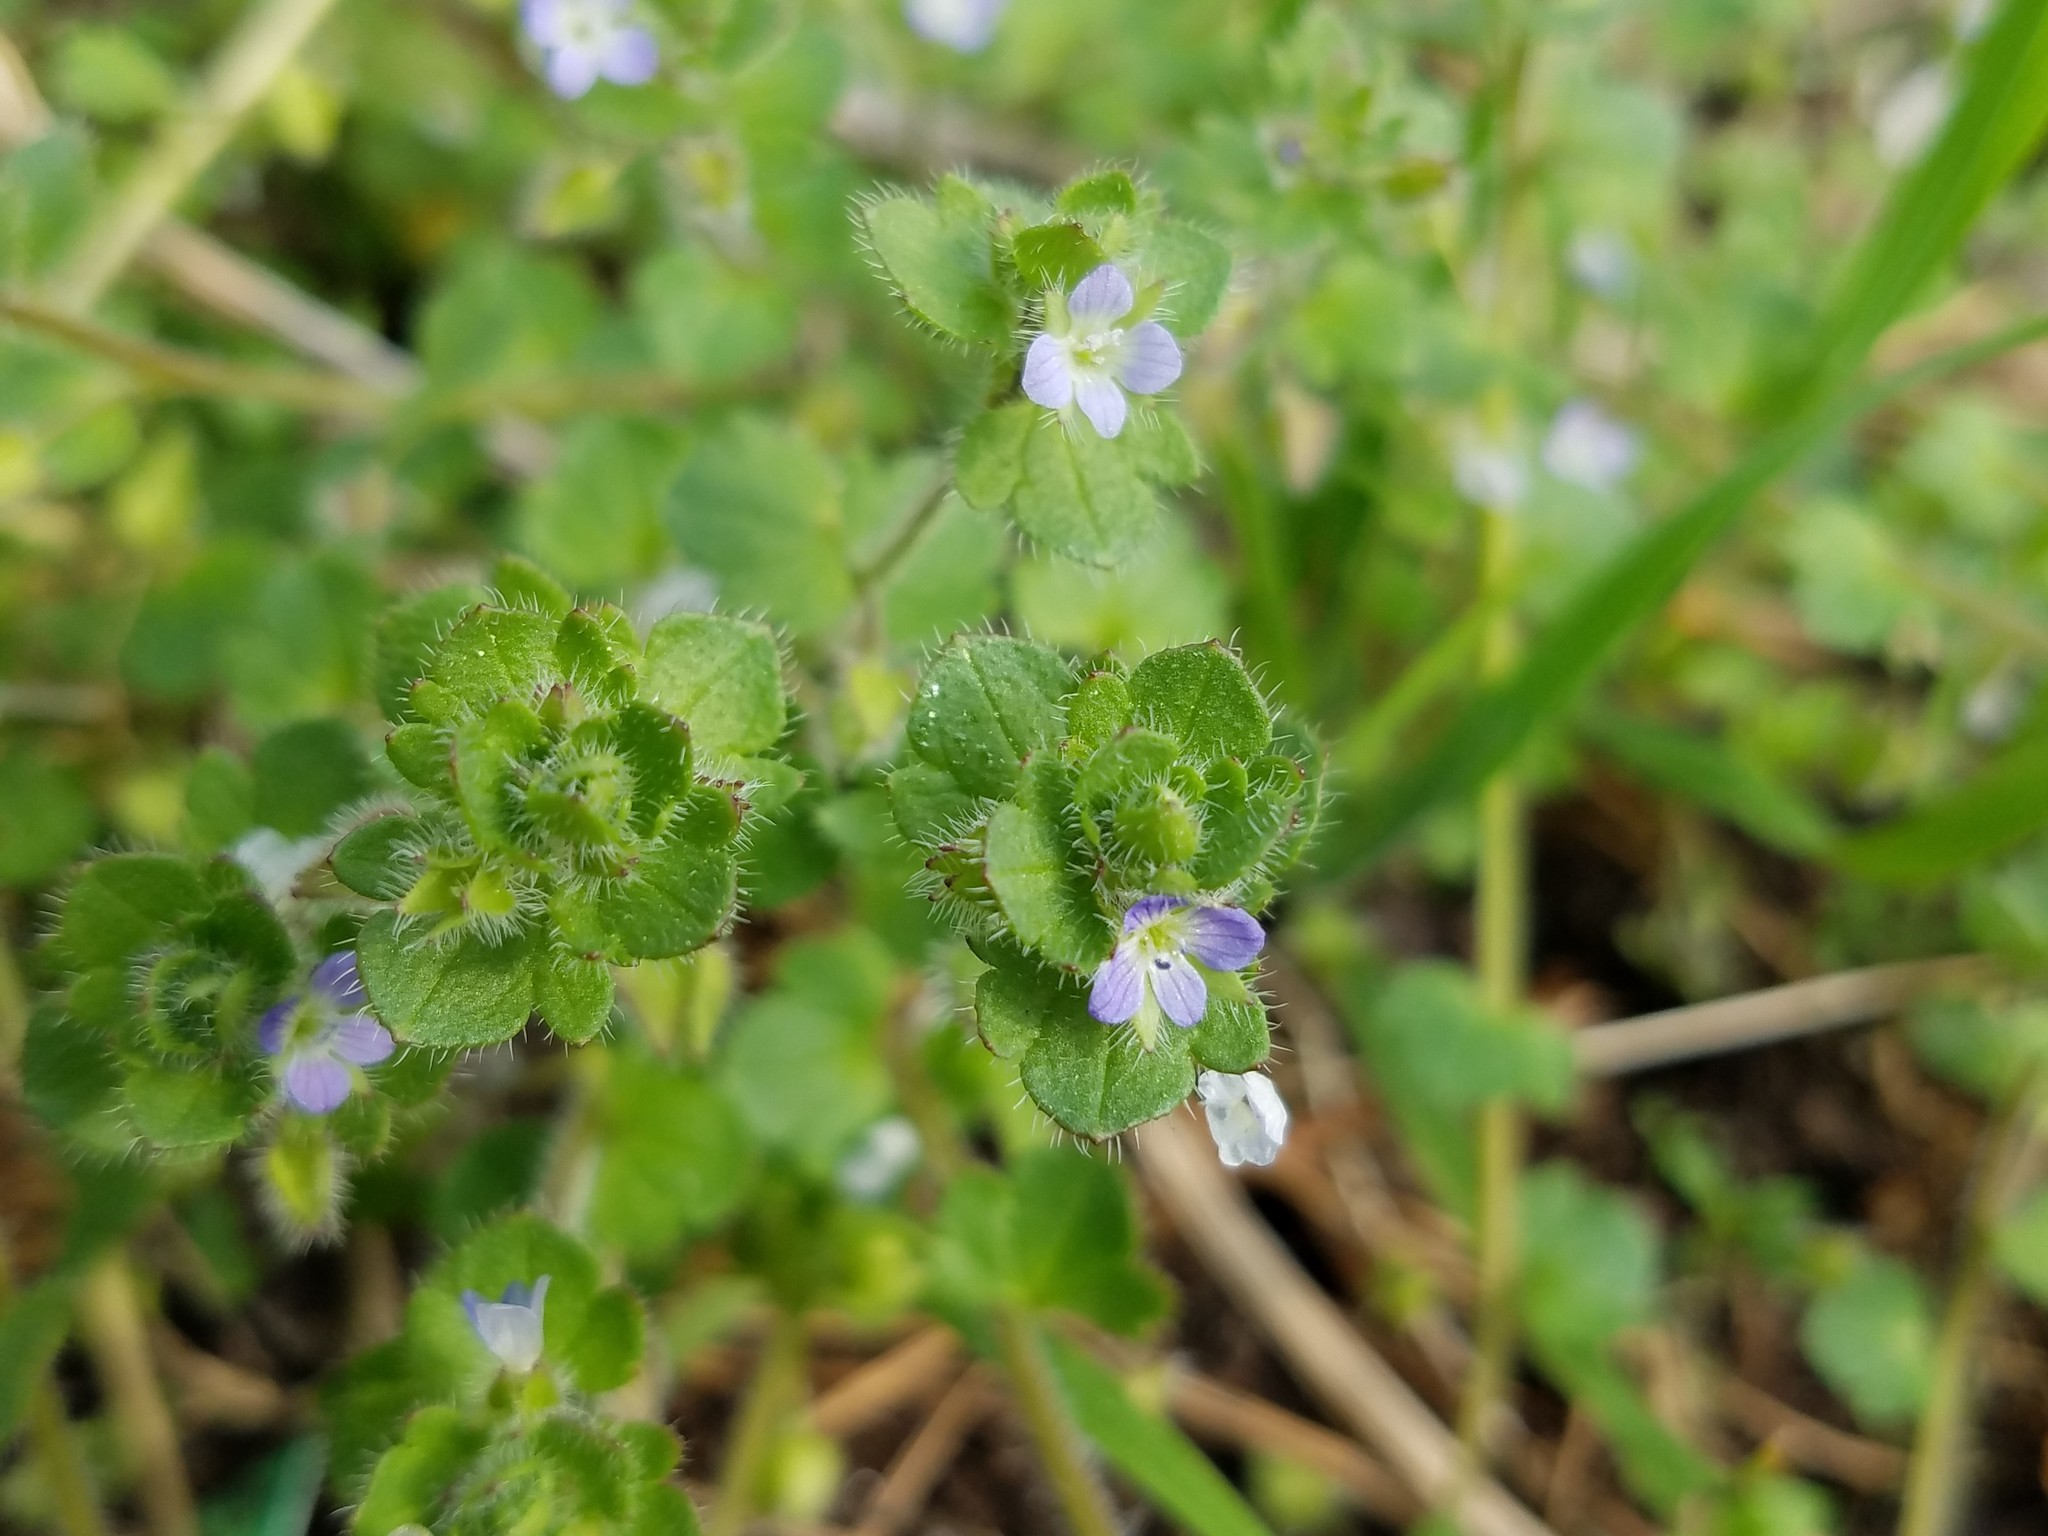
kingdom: Plantae
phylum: Tracheophyta
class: Magnoliopsida
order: Lamiales
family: Plantaginaceae
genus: Veronica
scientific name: Veronica hederifolia
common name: Ivy-leaved speedwell
